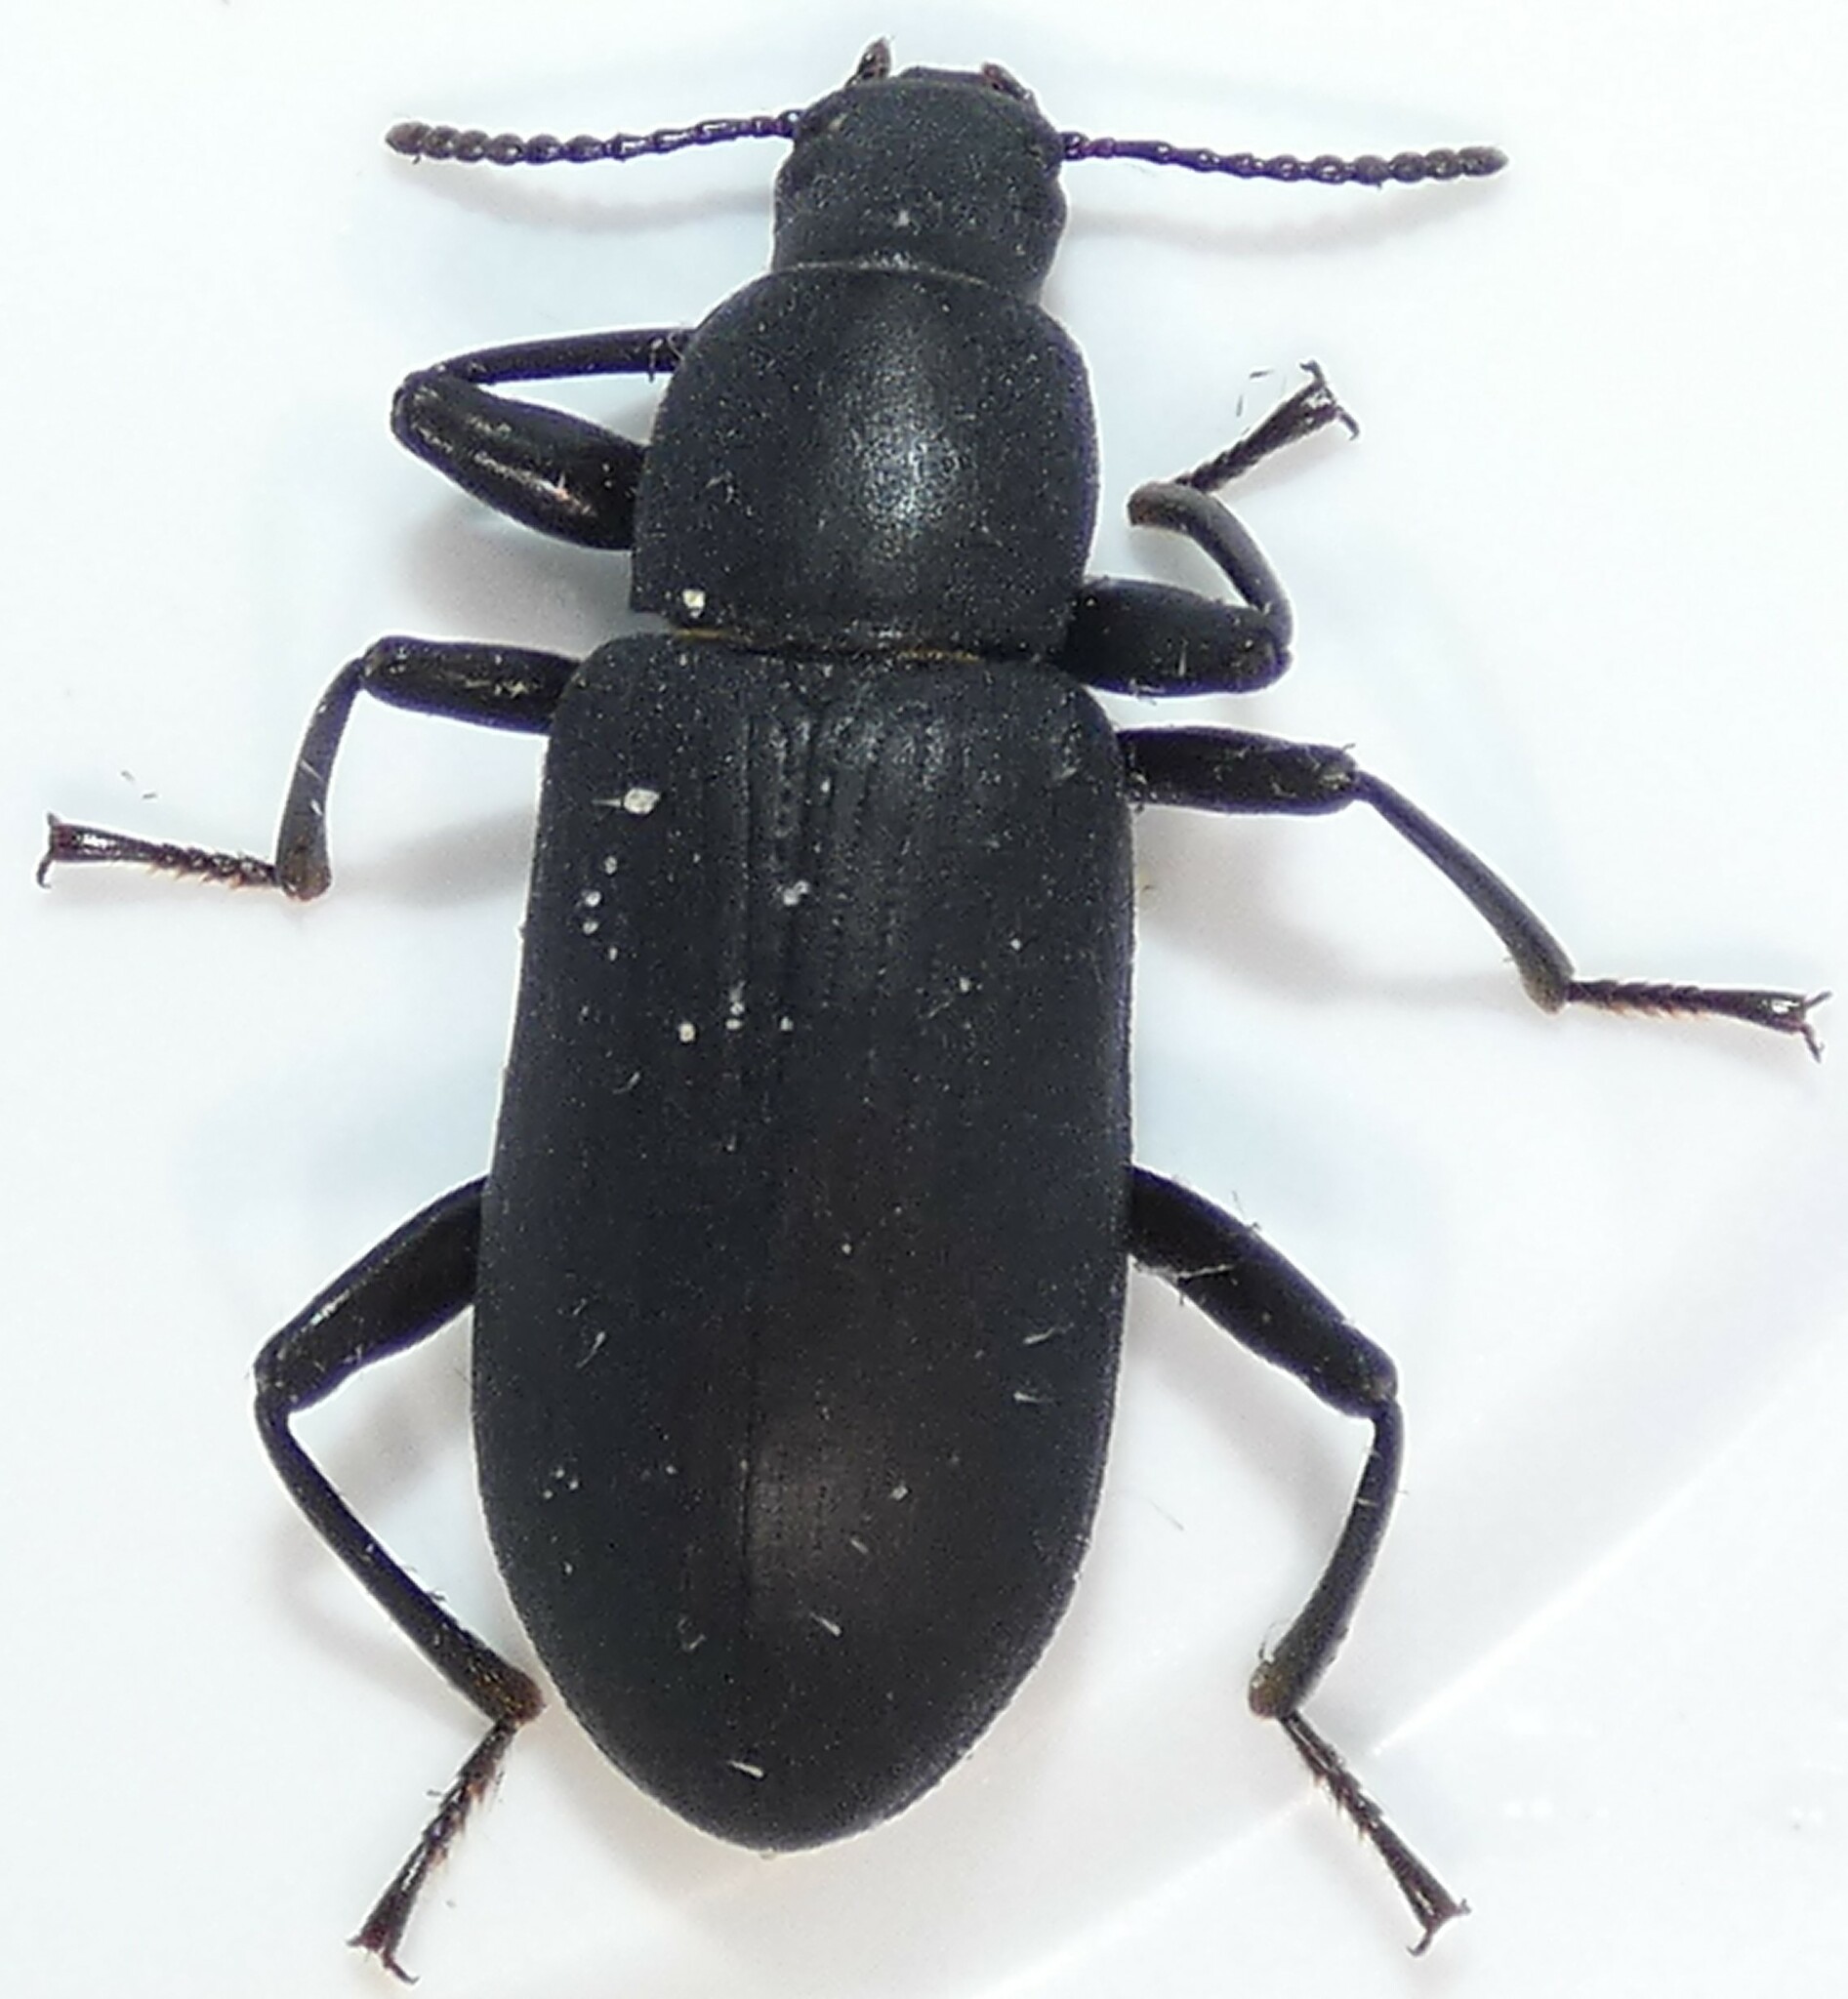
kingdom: Animalia
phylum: Arthropoda
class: Insecta
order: Coleoptera
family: Tenebrionidae
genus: Alobates
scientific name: Alobates
